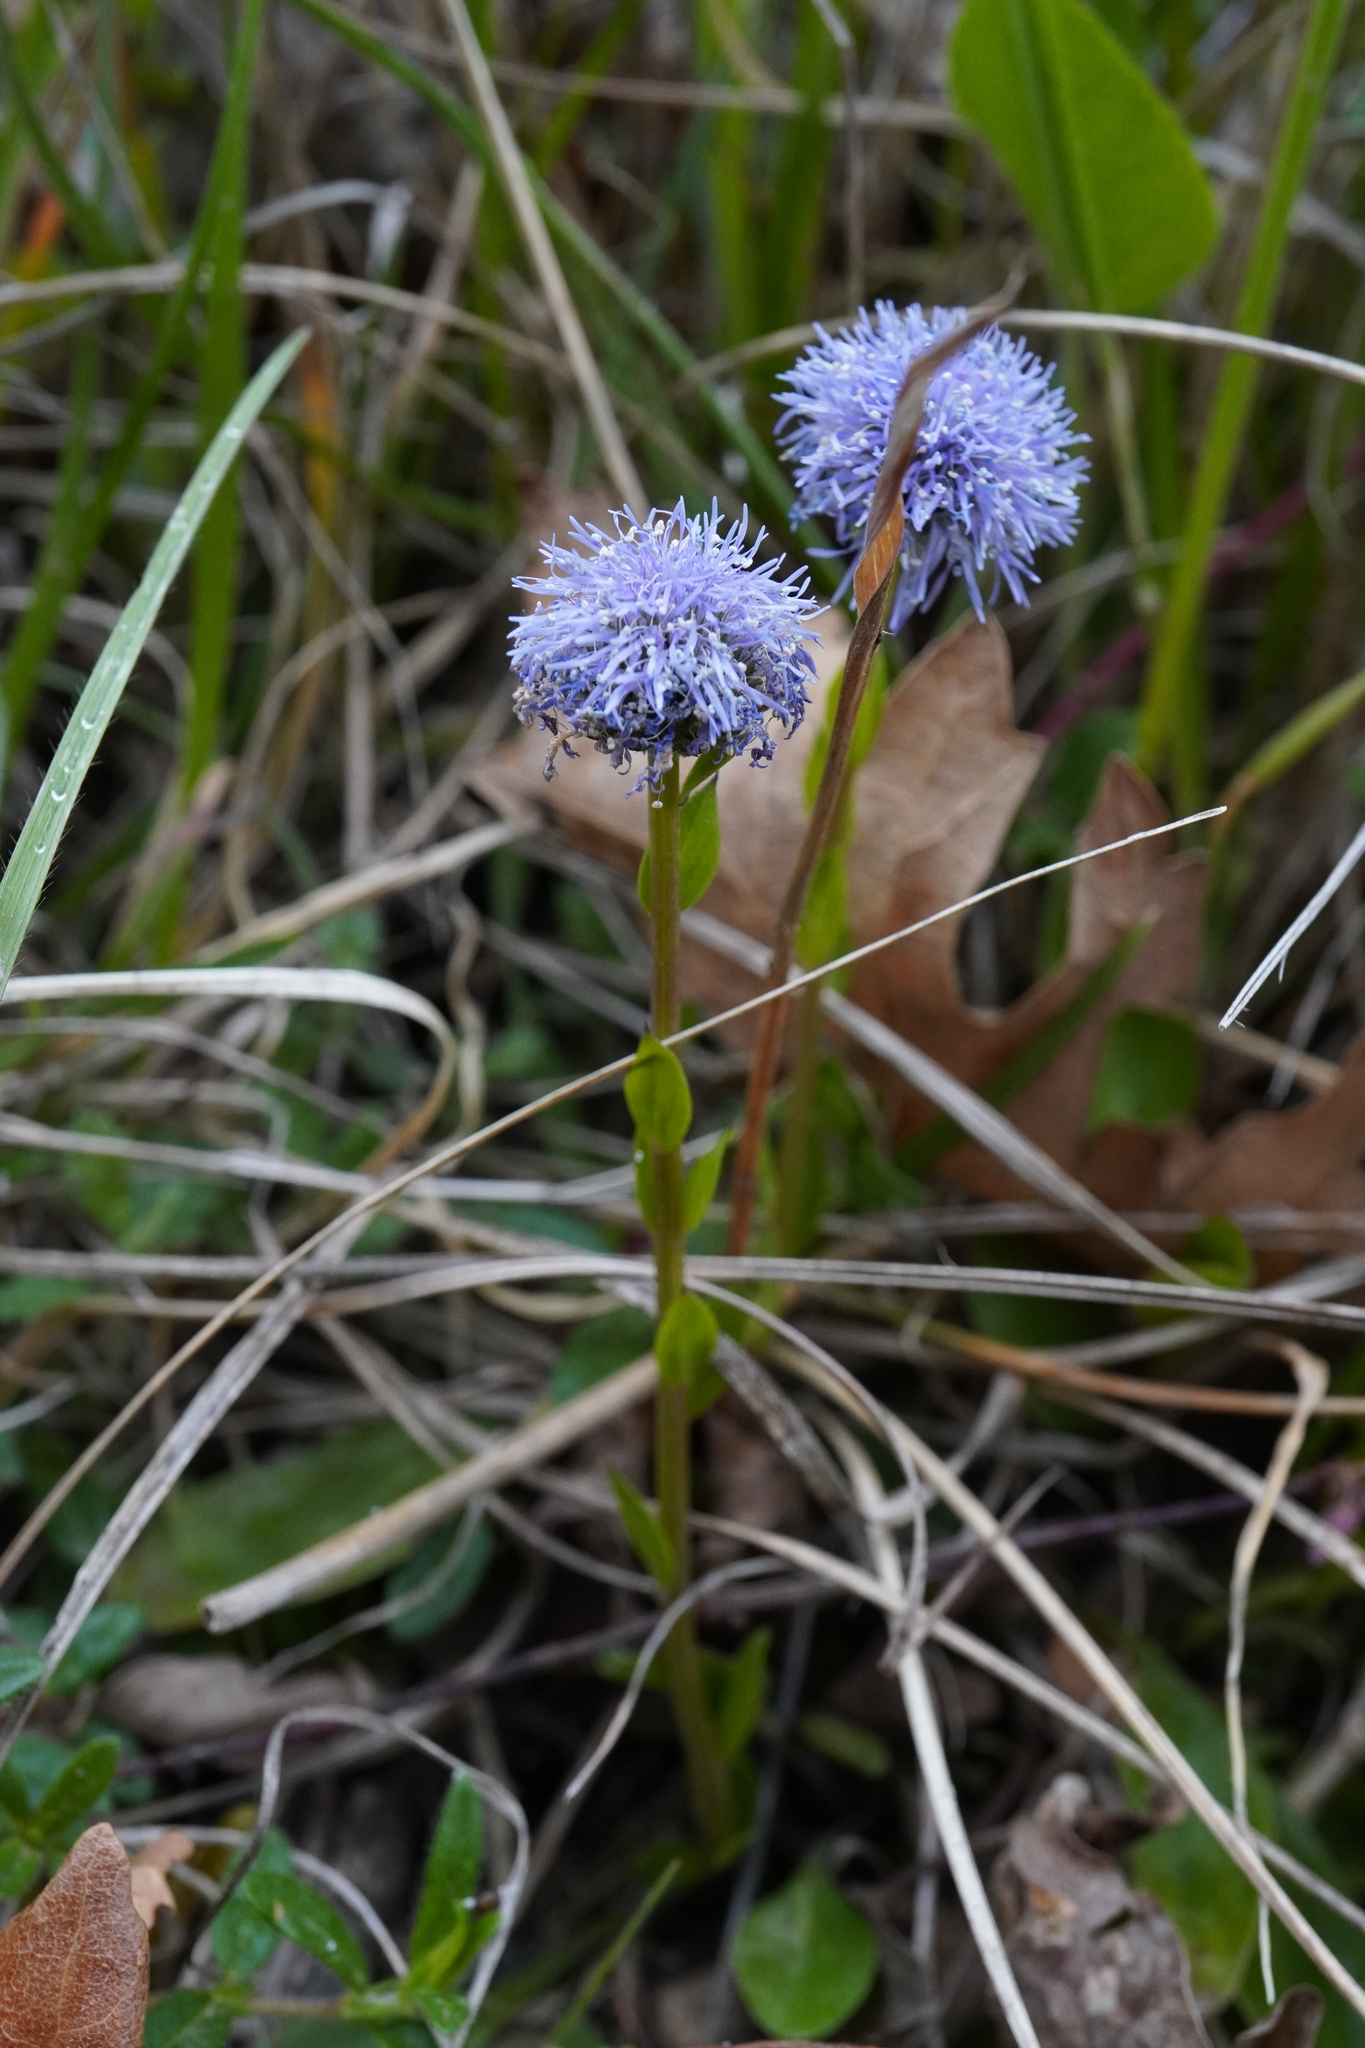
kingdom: Plantae
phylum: Tracheophyta
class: Magnoliopsida
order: Lamiales
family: Plantaginaceae
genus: Globularia
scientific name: Globularia bisnagarica
